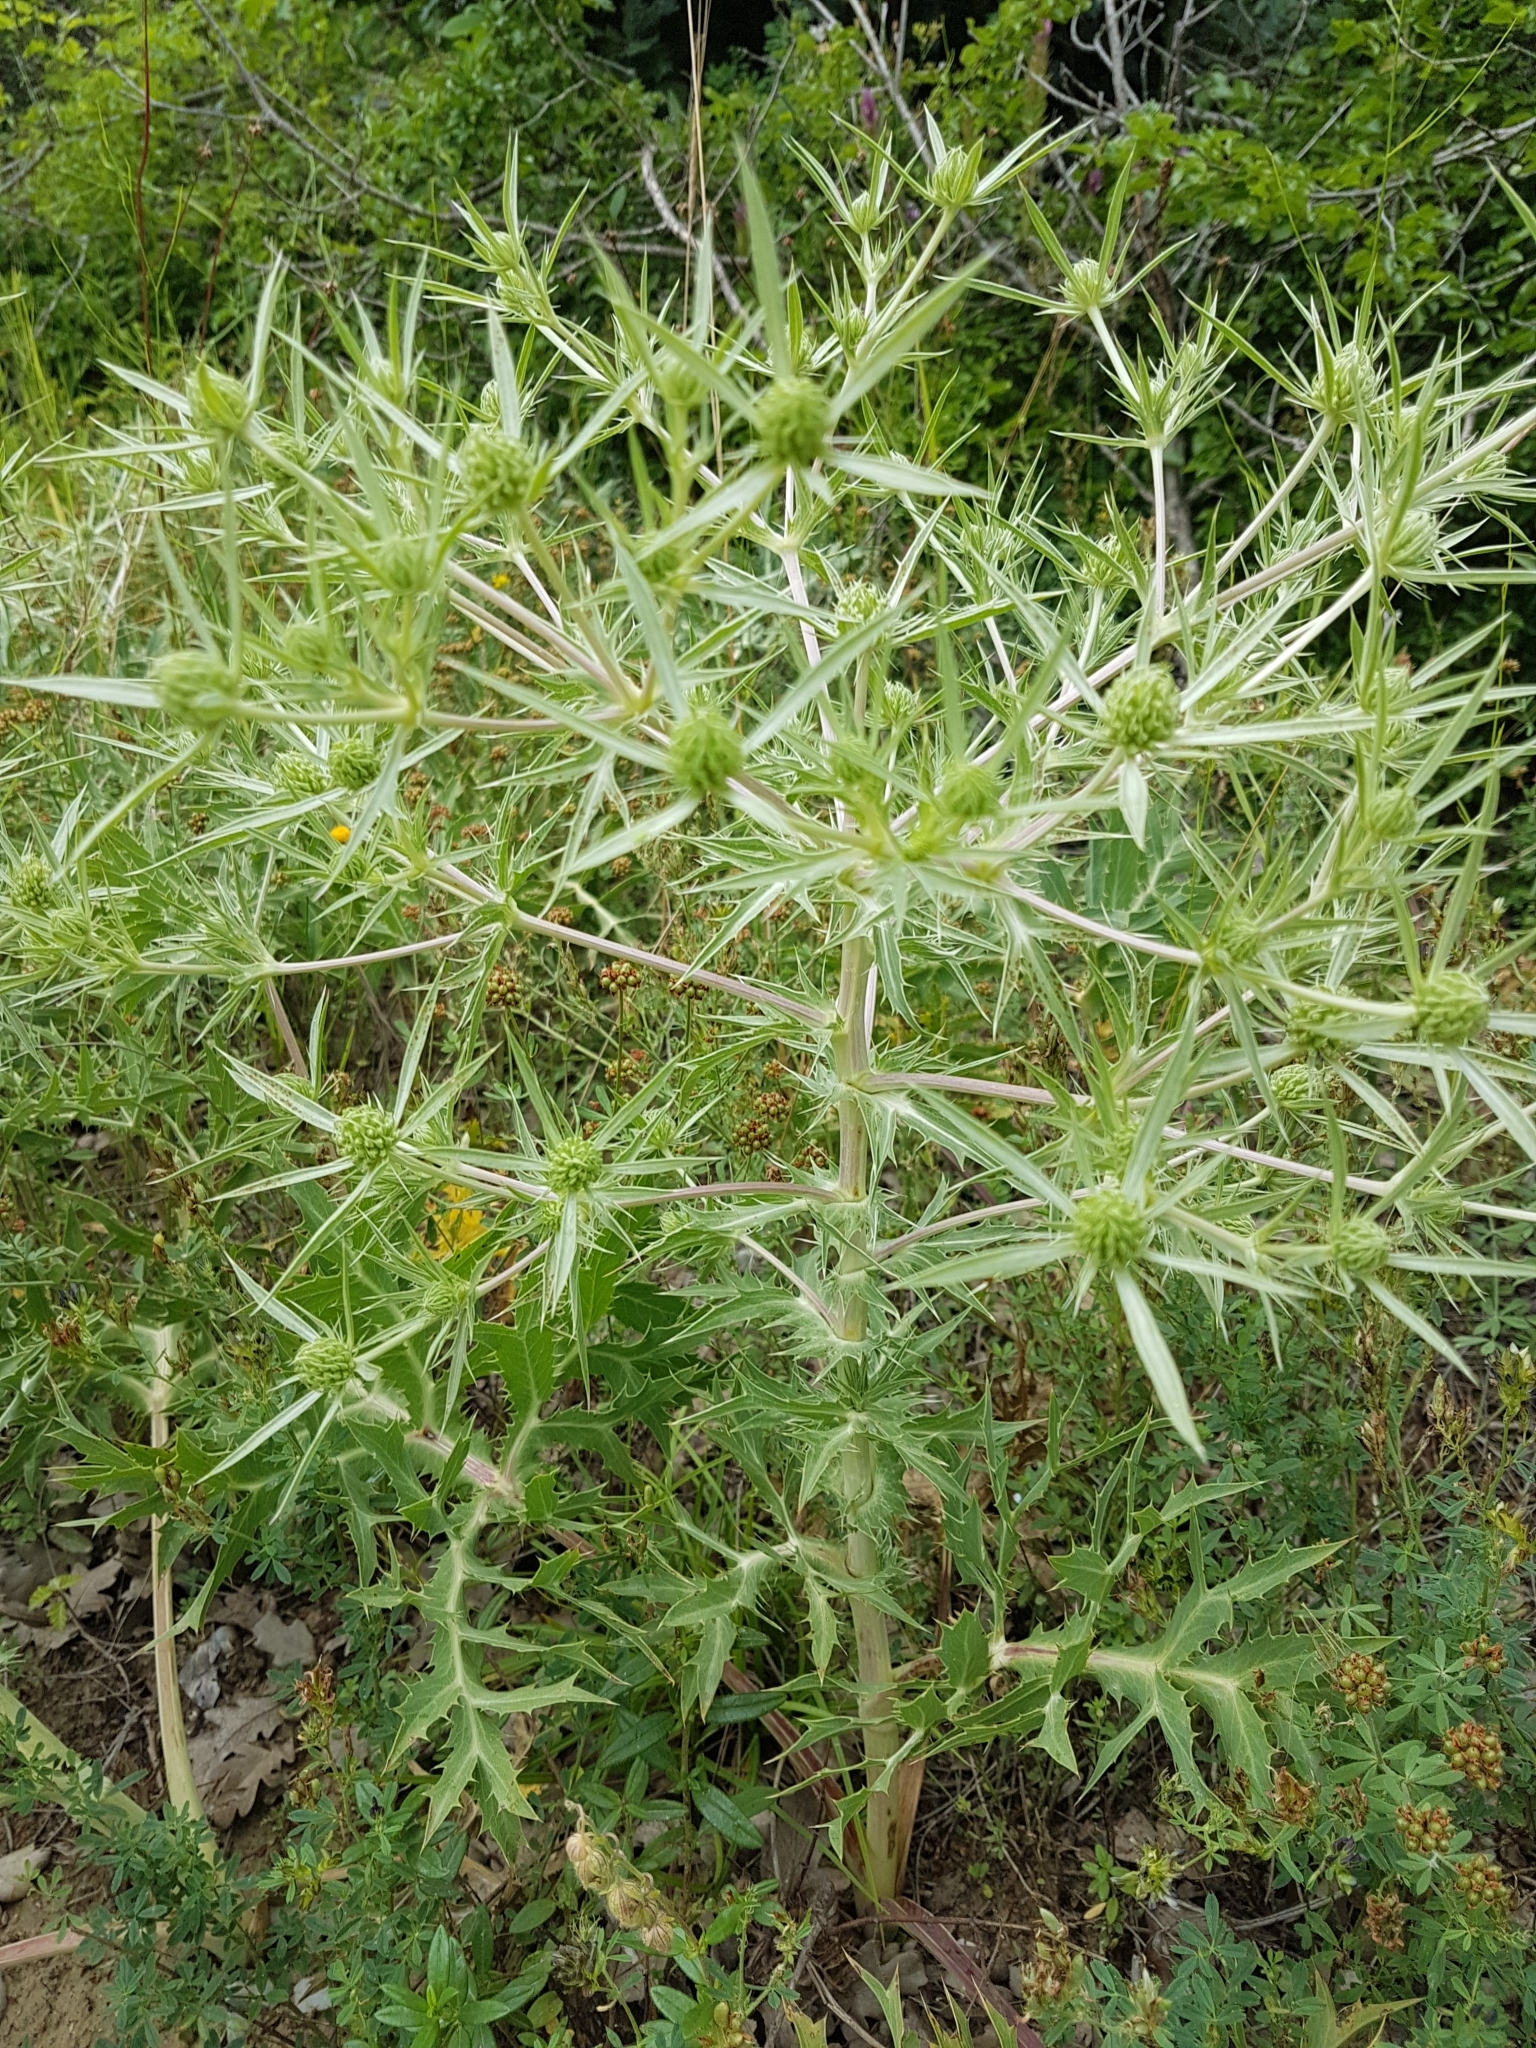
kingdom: Plantae
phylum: Tracheophyta
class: Magnoliopsida
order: Apiales
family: Apiaceae
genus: Eryngium
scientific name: Eryngium campestre
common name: Field eryngo
